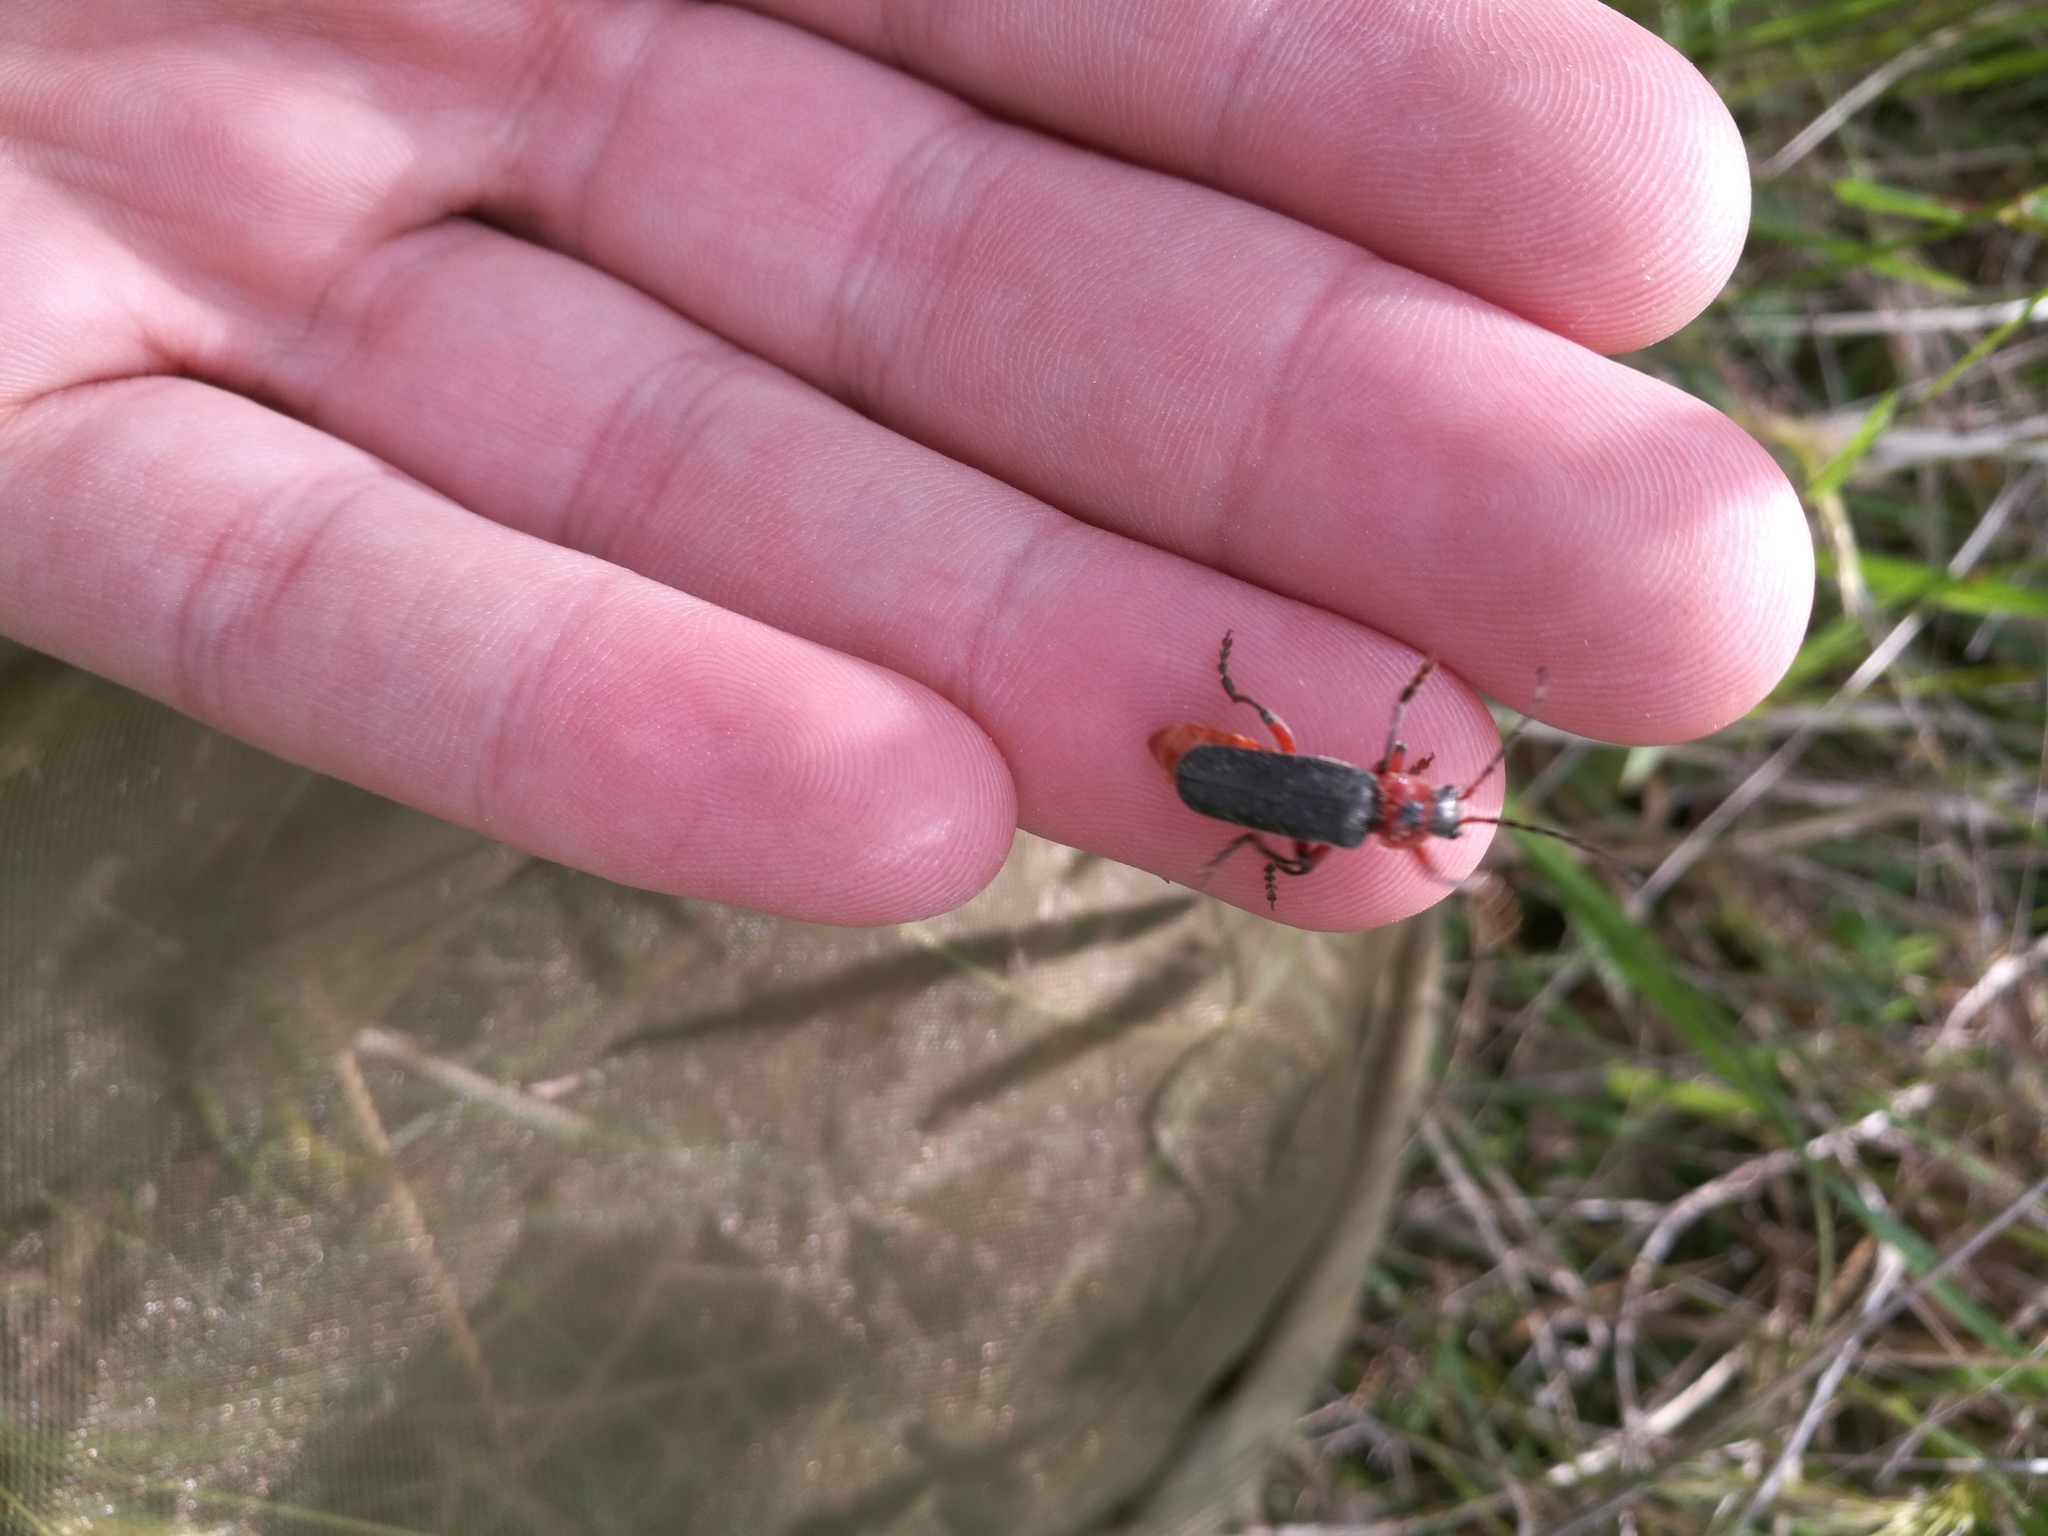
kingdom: Animalia
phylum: Arthropoda
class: Insecta
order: Coleoptera
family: Cantharidae
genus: Cantharis
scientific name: Cantharis rustica
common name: Soldier beetle
